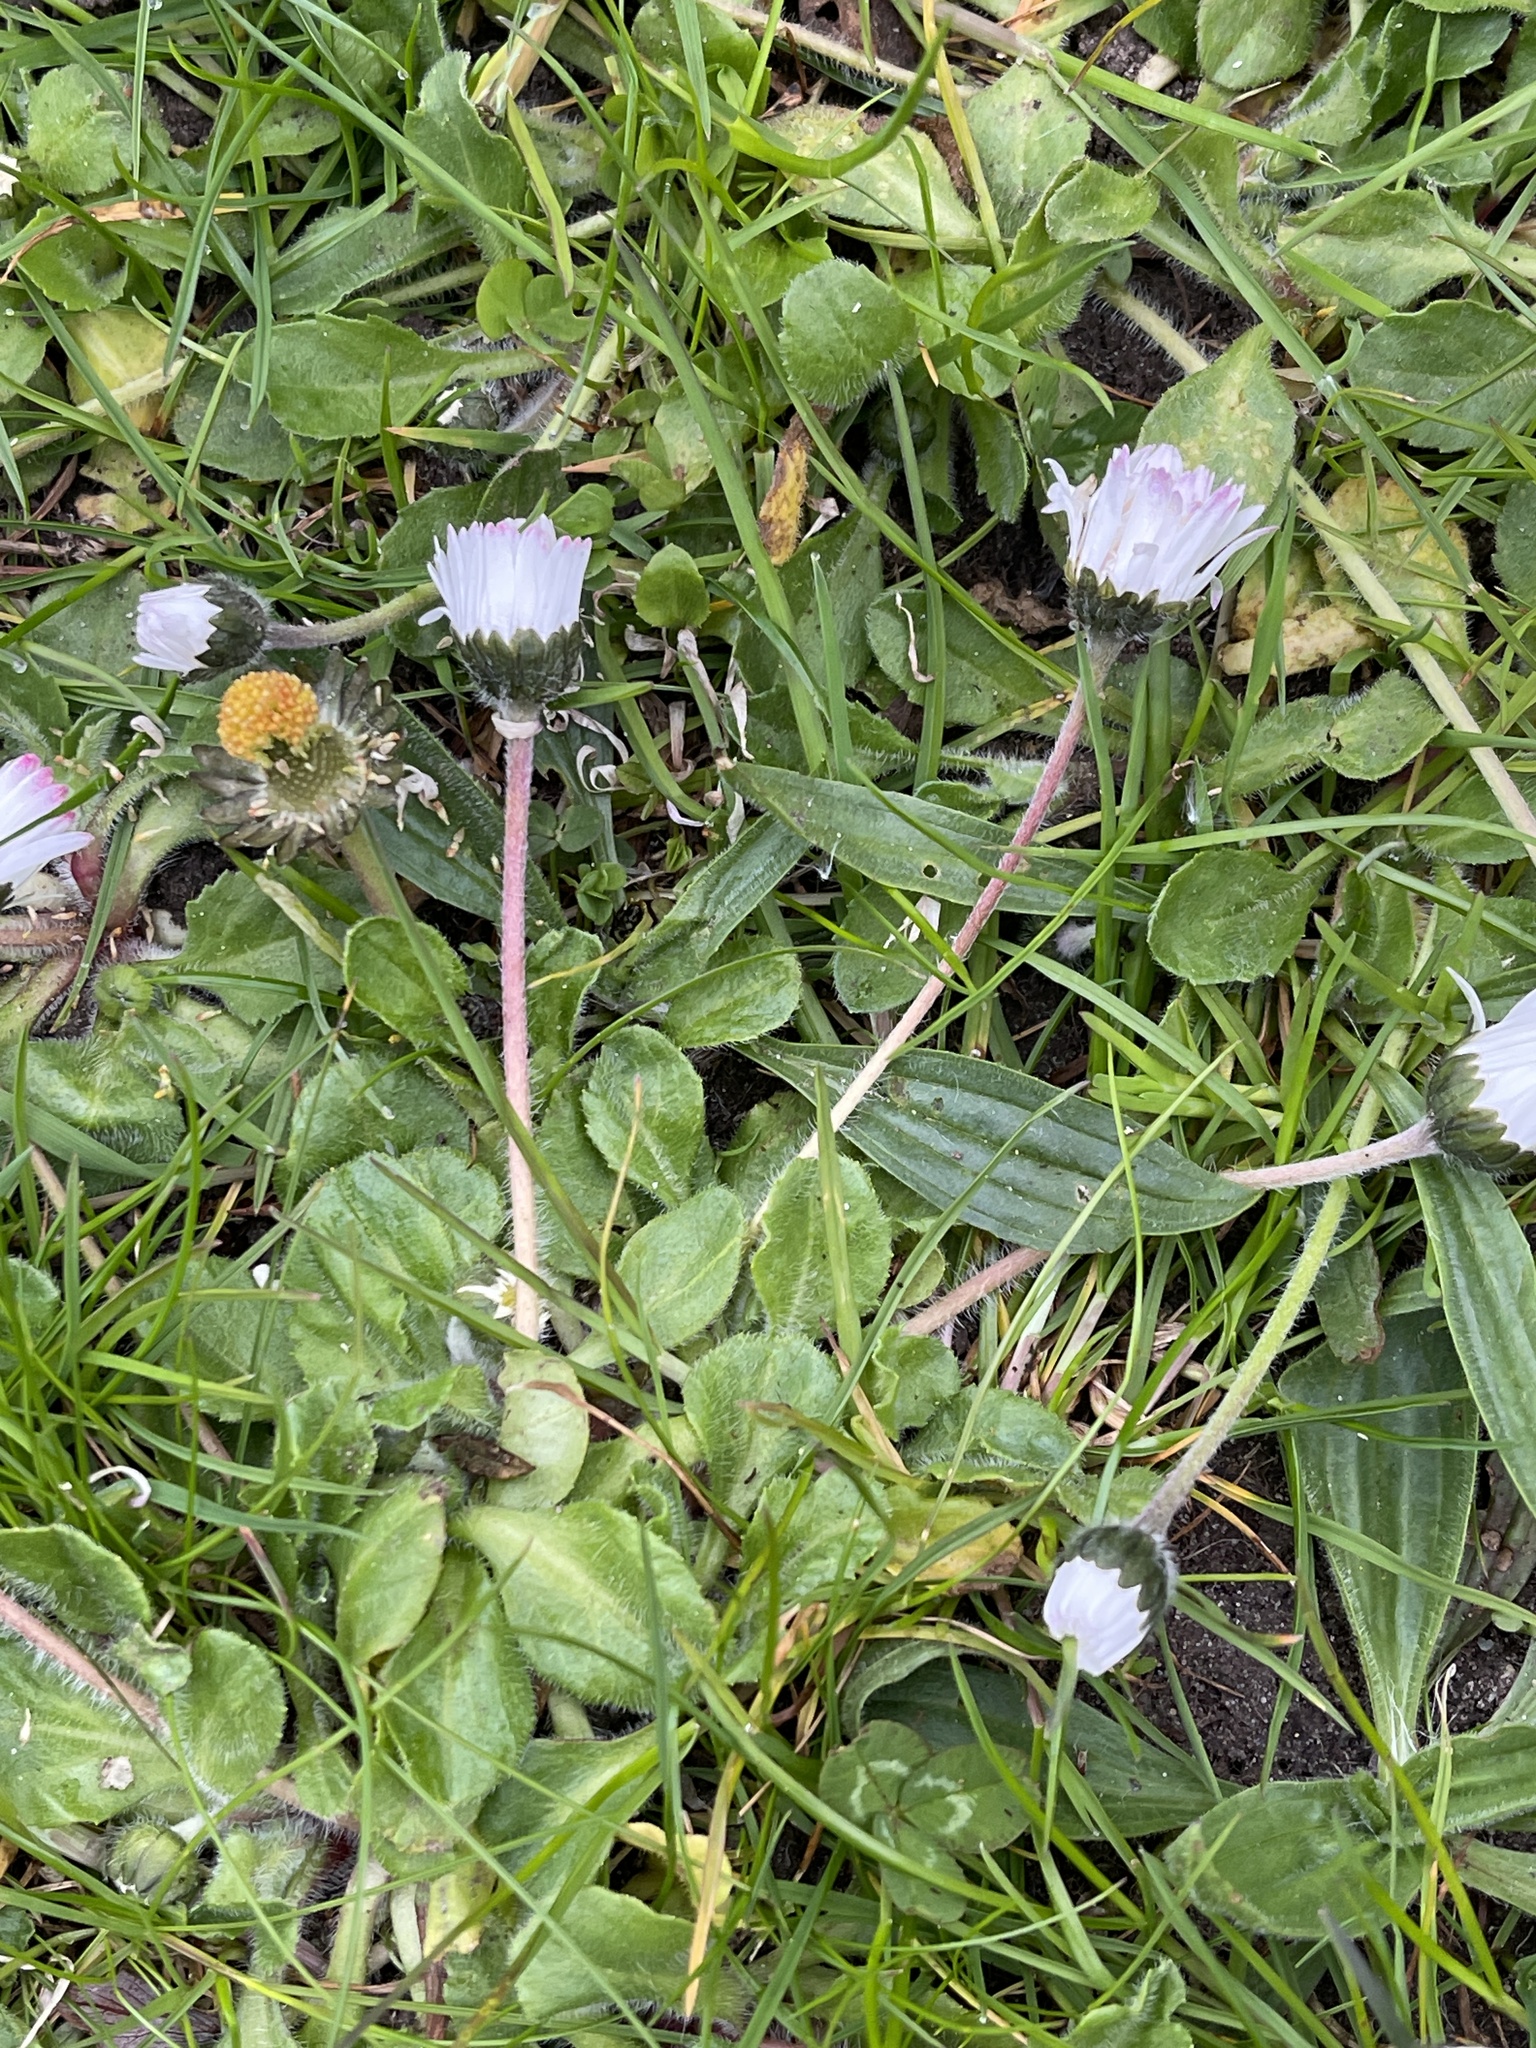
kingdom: Plantae
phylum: Tracheophyta
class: Magnoliopsida
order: Asterales
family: Asteraceae
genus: Bellis
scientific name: Bellis perennis
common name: Lawndaisy
